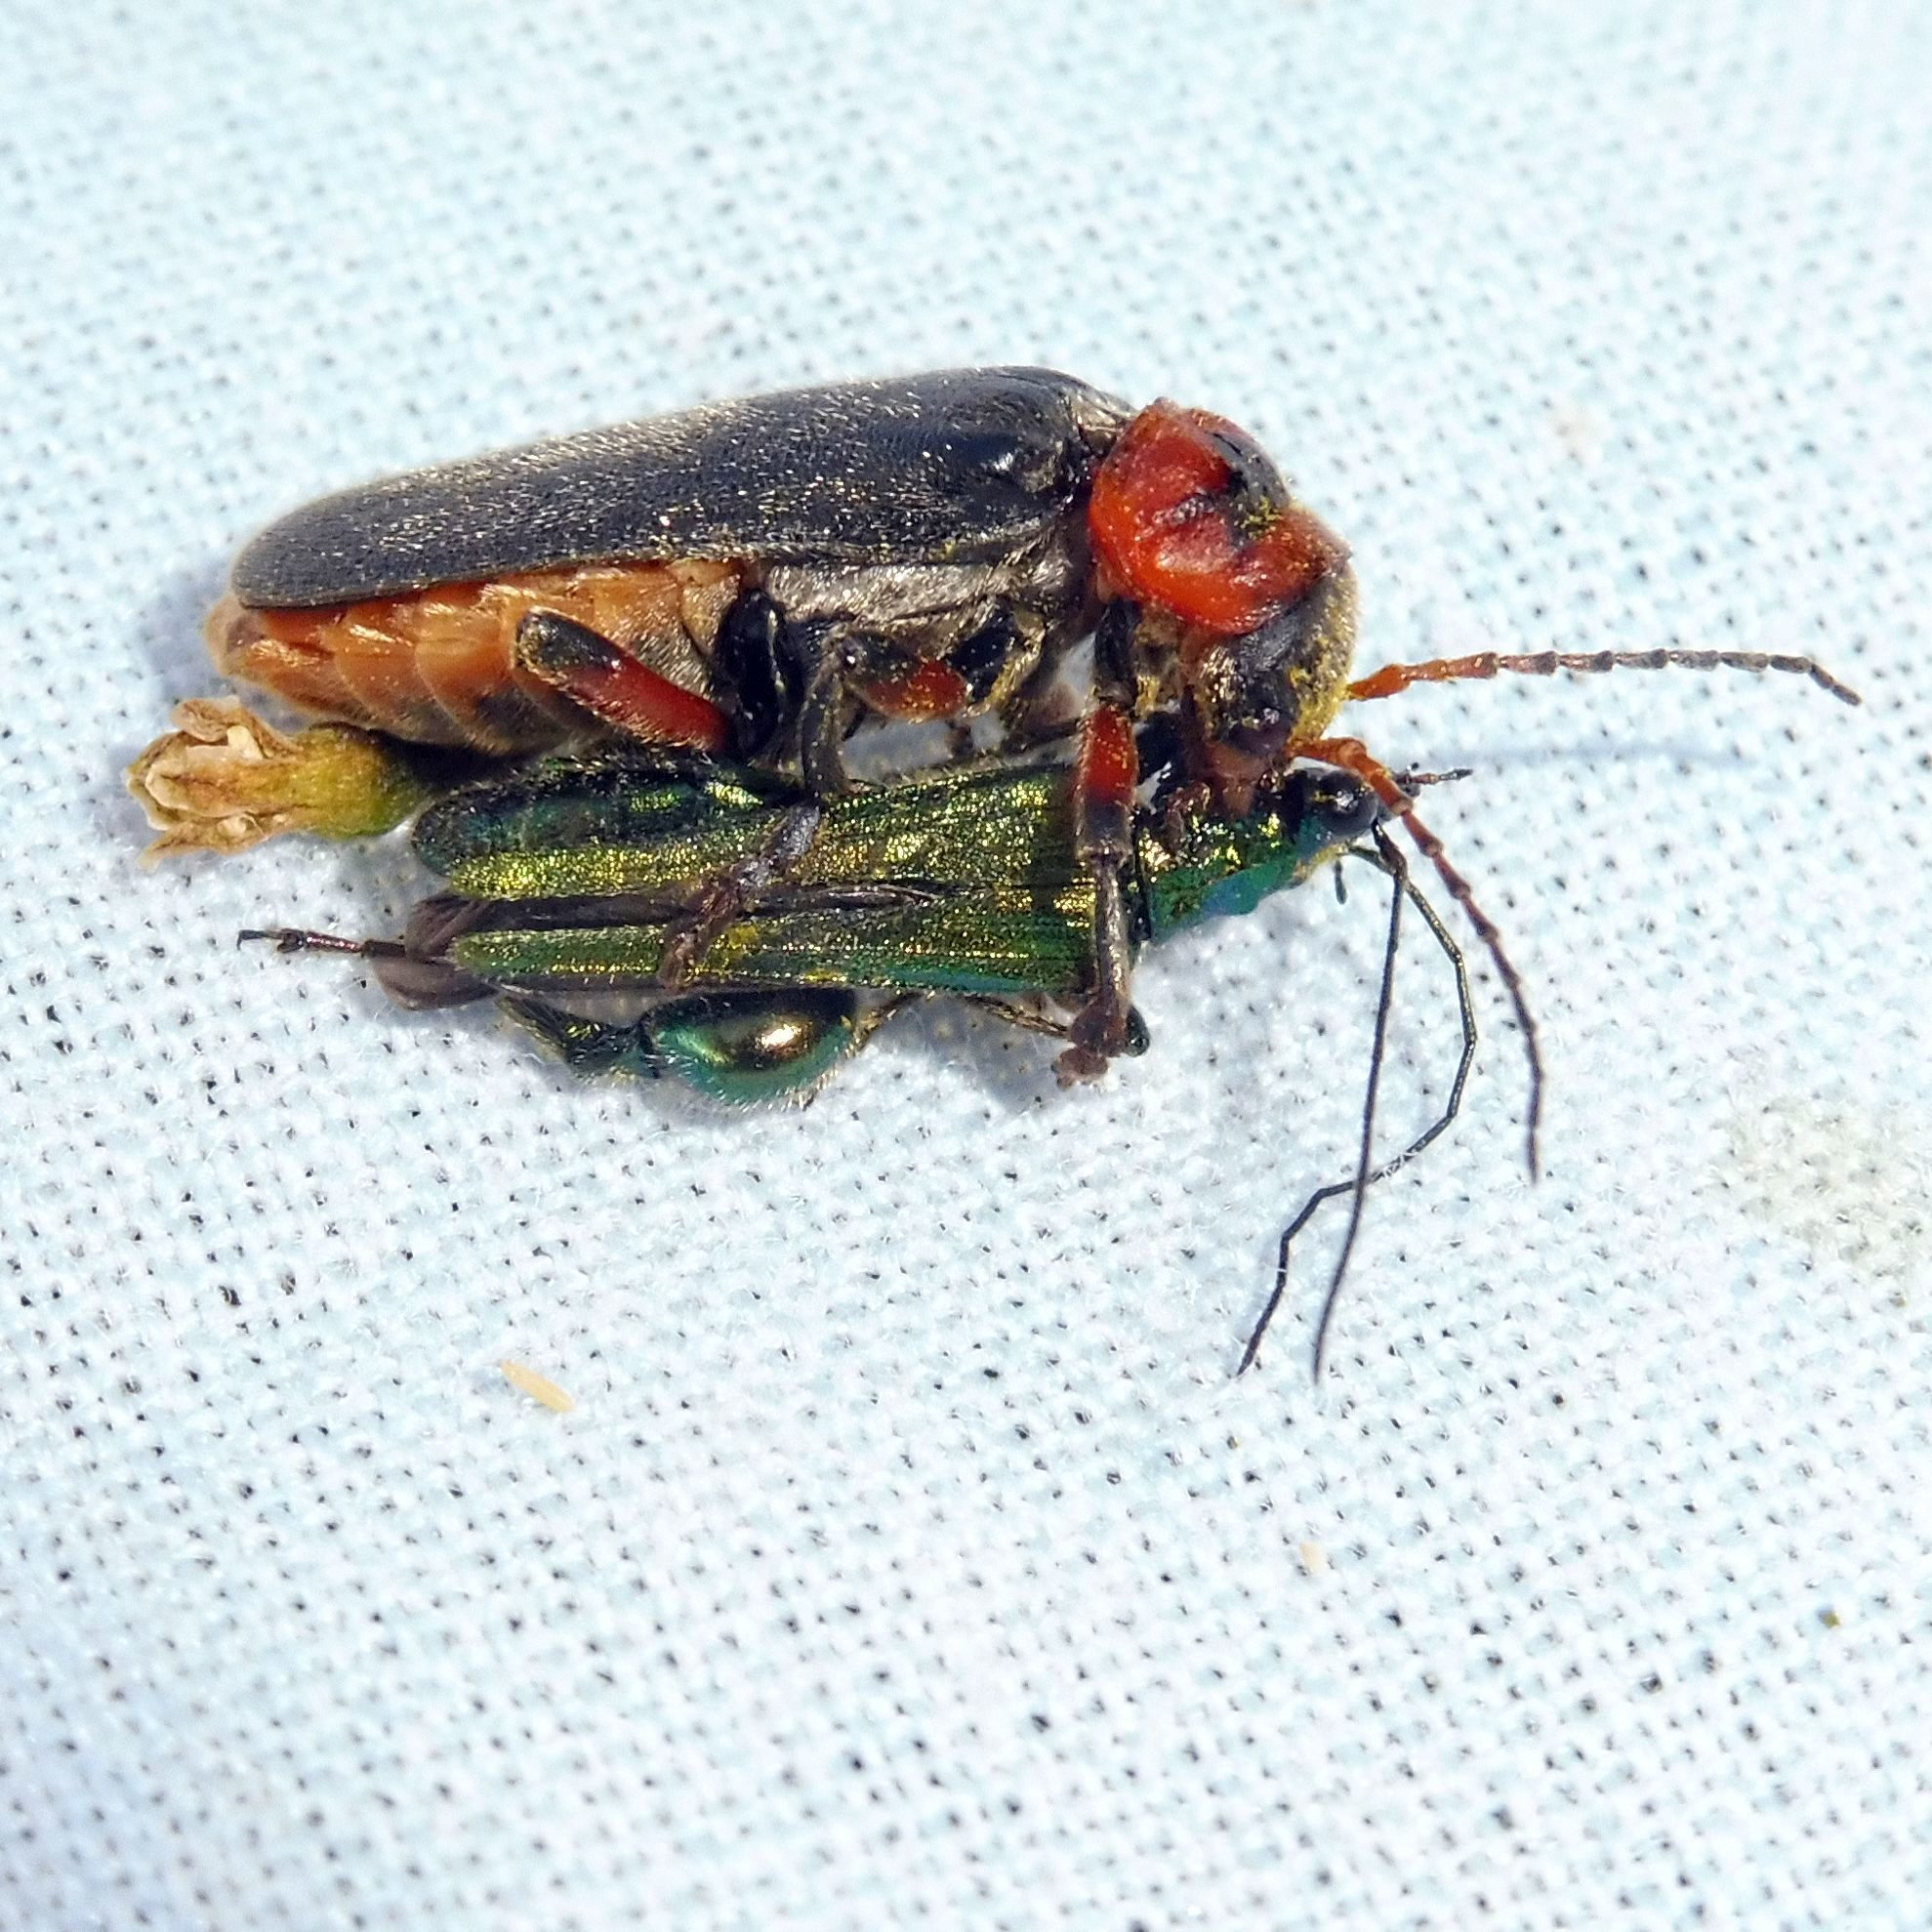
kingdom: Animalia
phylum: Arthropoda
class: Insecta
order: Coleoptera
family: Oedemeridae
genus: Oedemera
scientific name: Oedemera nobilis
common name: Swollen-thighed beetle
